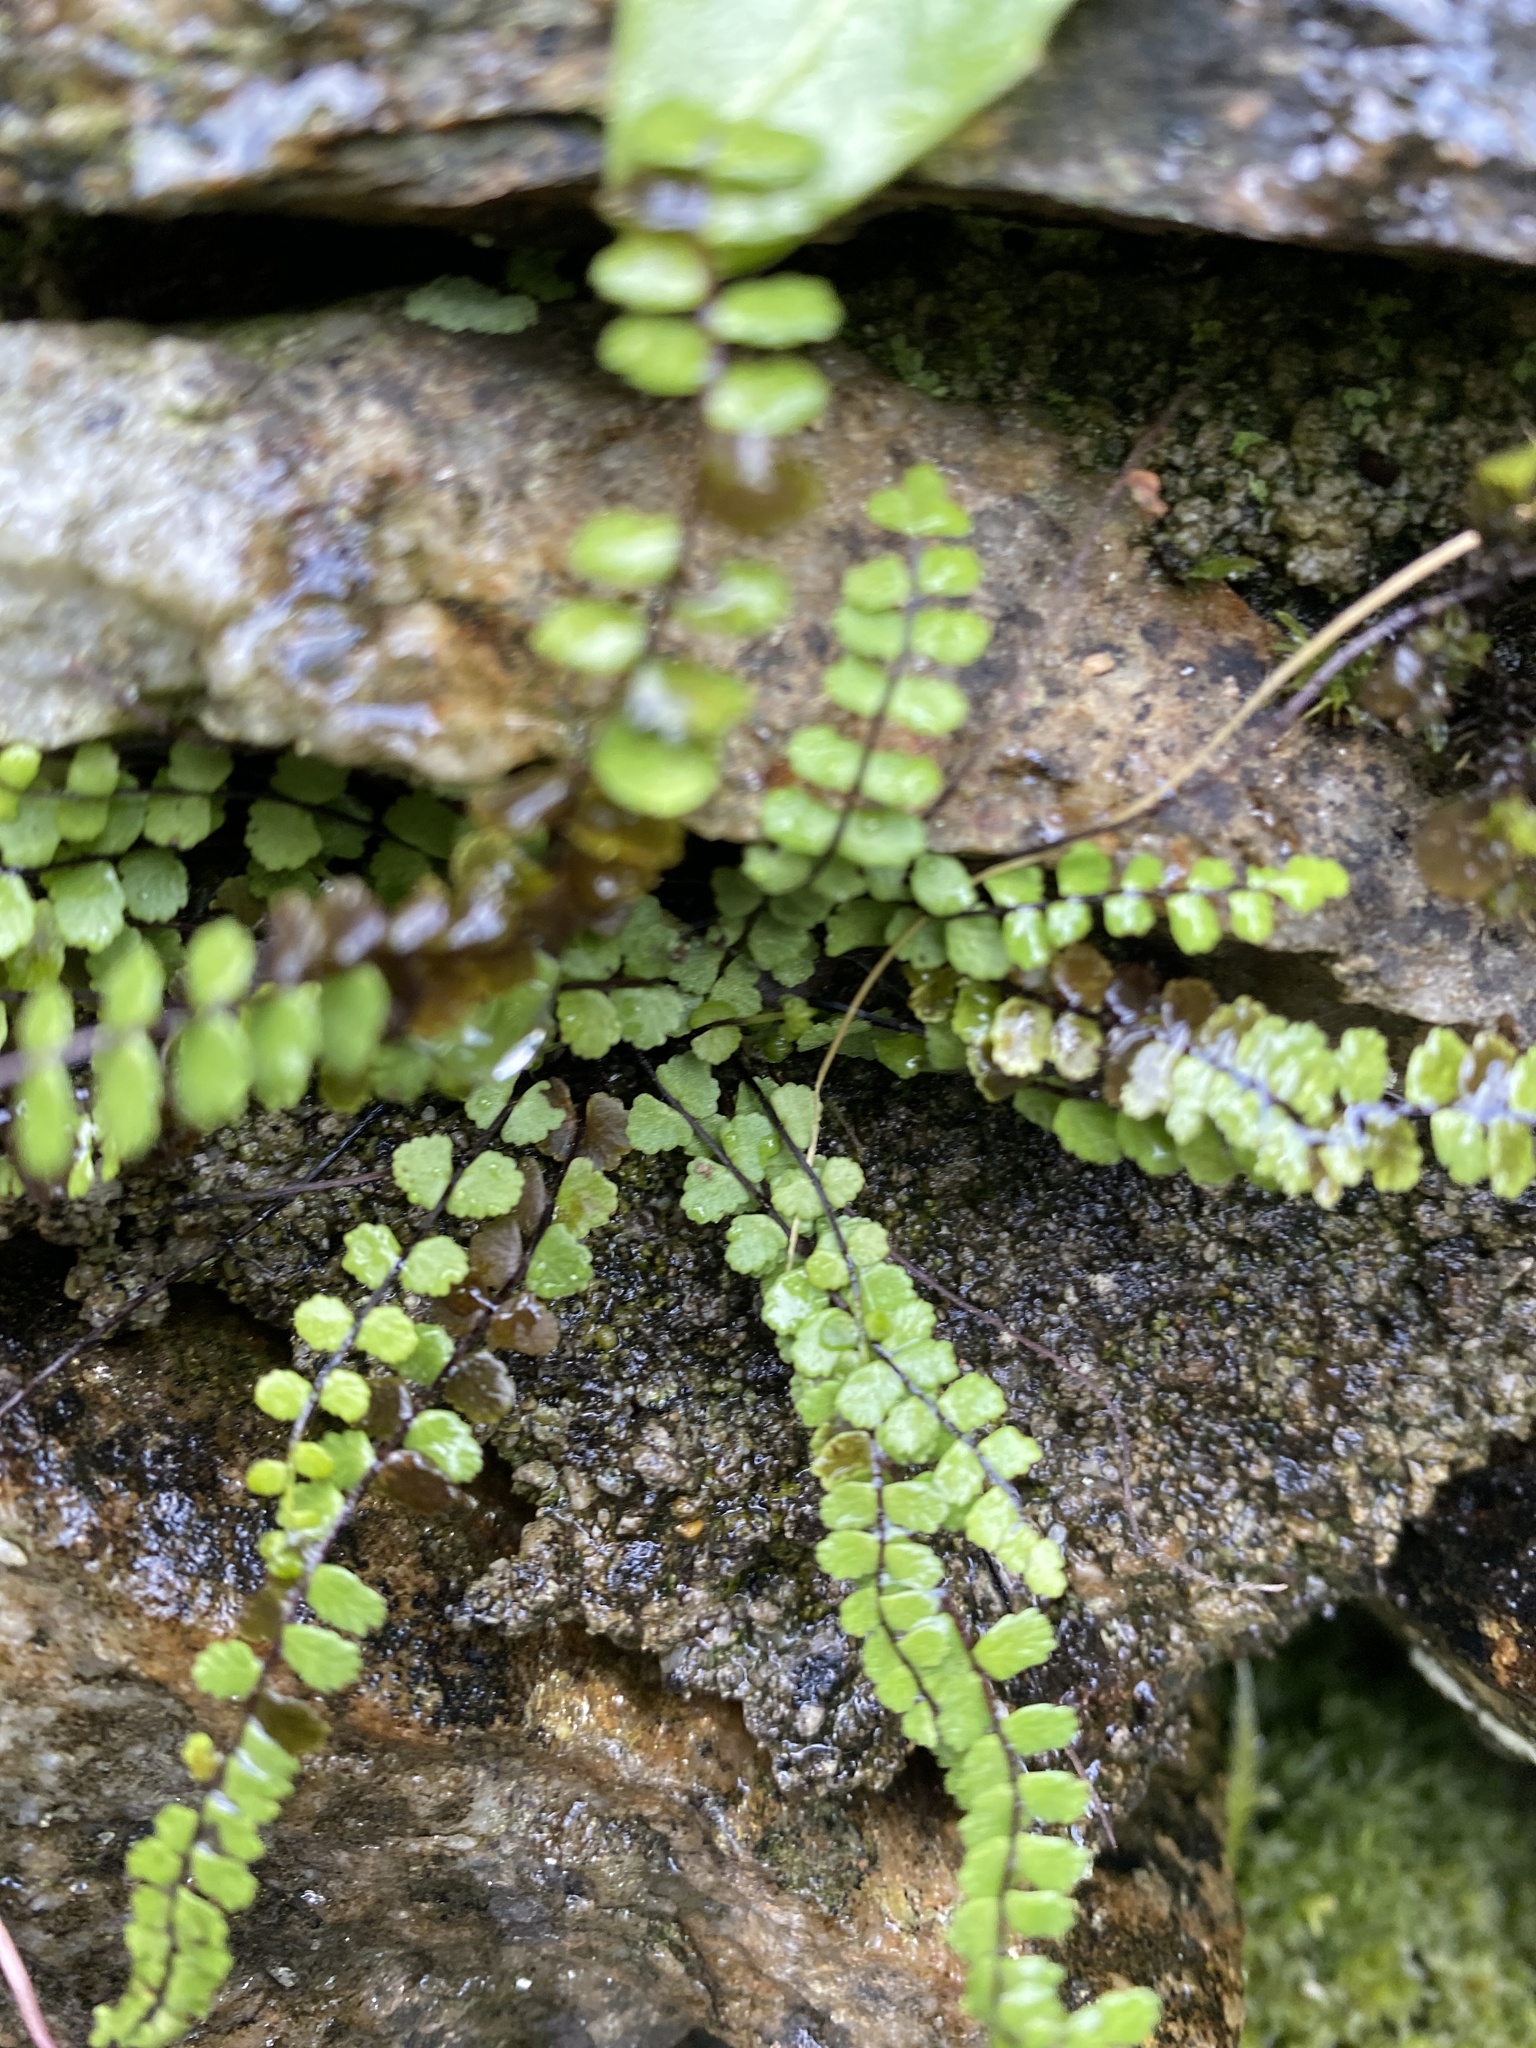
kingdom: Plantae
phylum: Tracheophyta
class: Polypodiopsida
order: Polypodiales
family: Aspleniaceae
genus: Asplenium
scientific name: Asplenium trichomanes
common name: Maidenhair spleenwort
